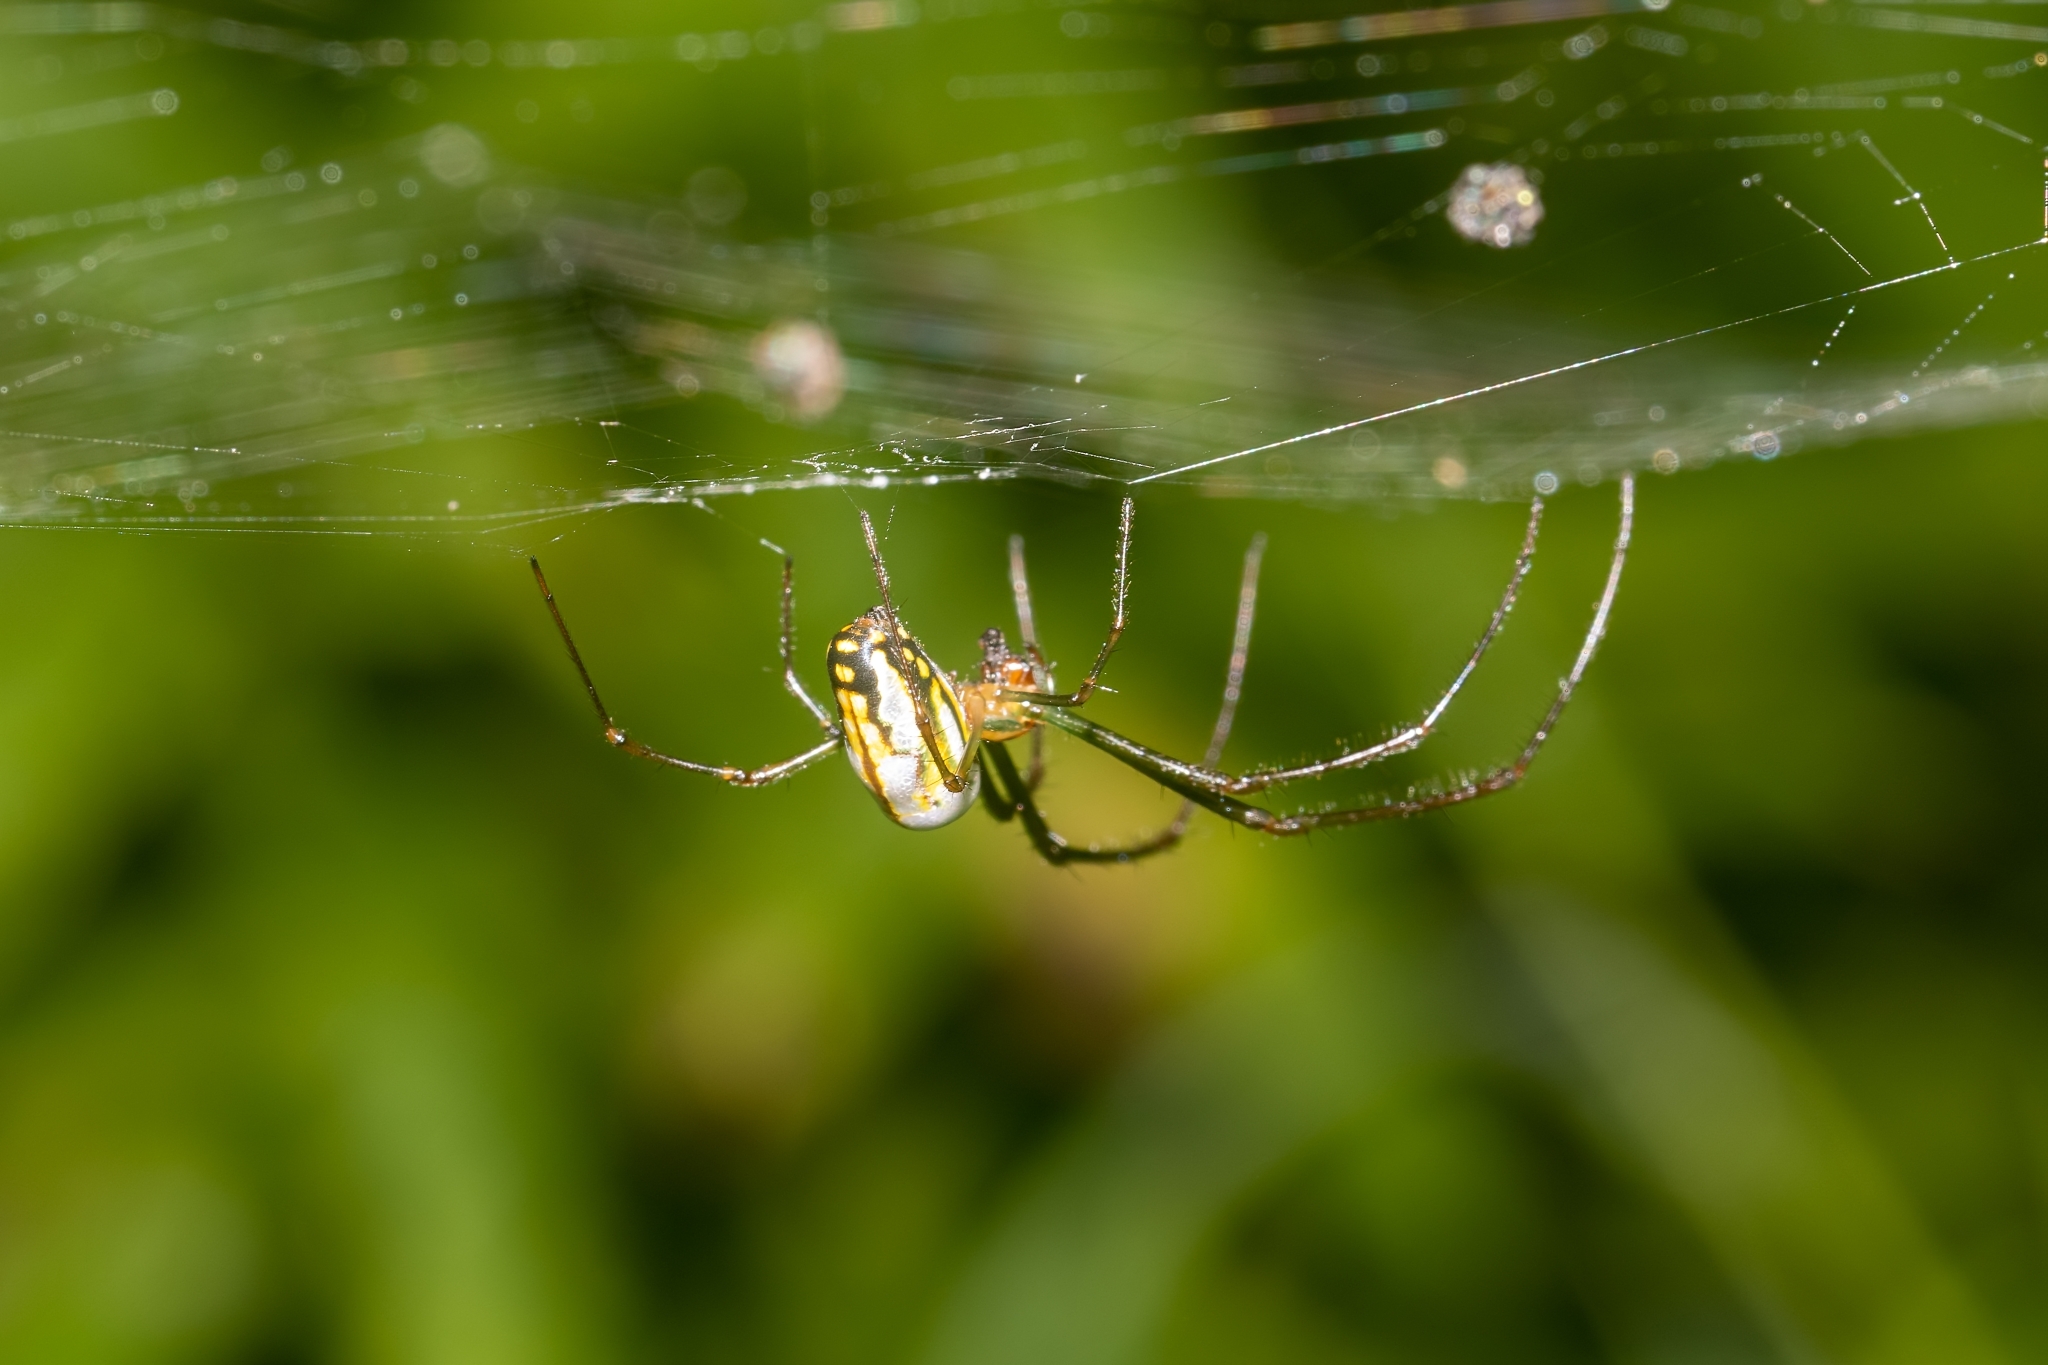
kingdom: Animalia
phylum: Arthropoda
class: Arachnida
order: Araneae
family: Tetragnathidae
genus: Leucauge
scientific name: Leucauge argyra
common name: Longjawed orb weavers
